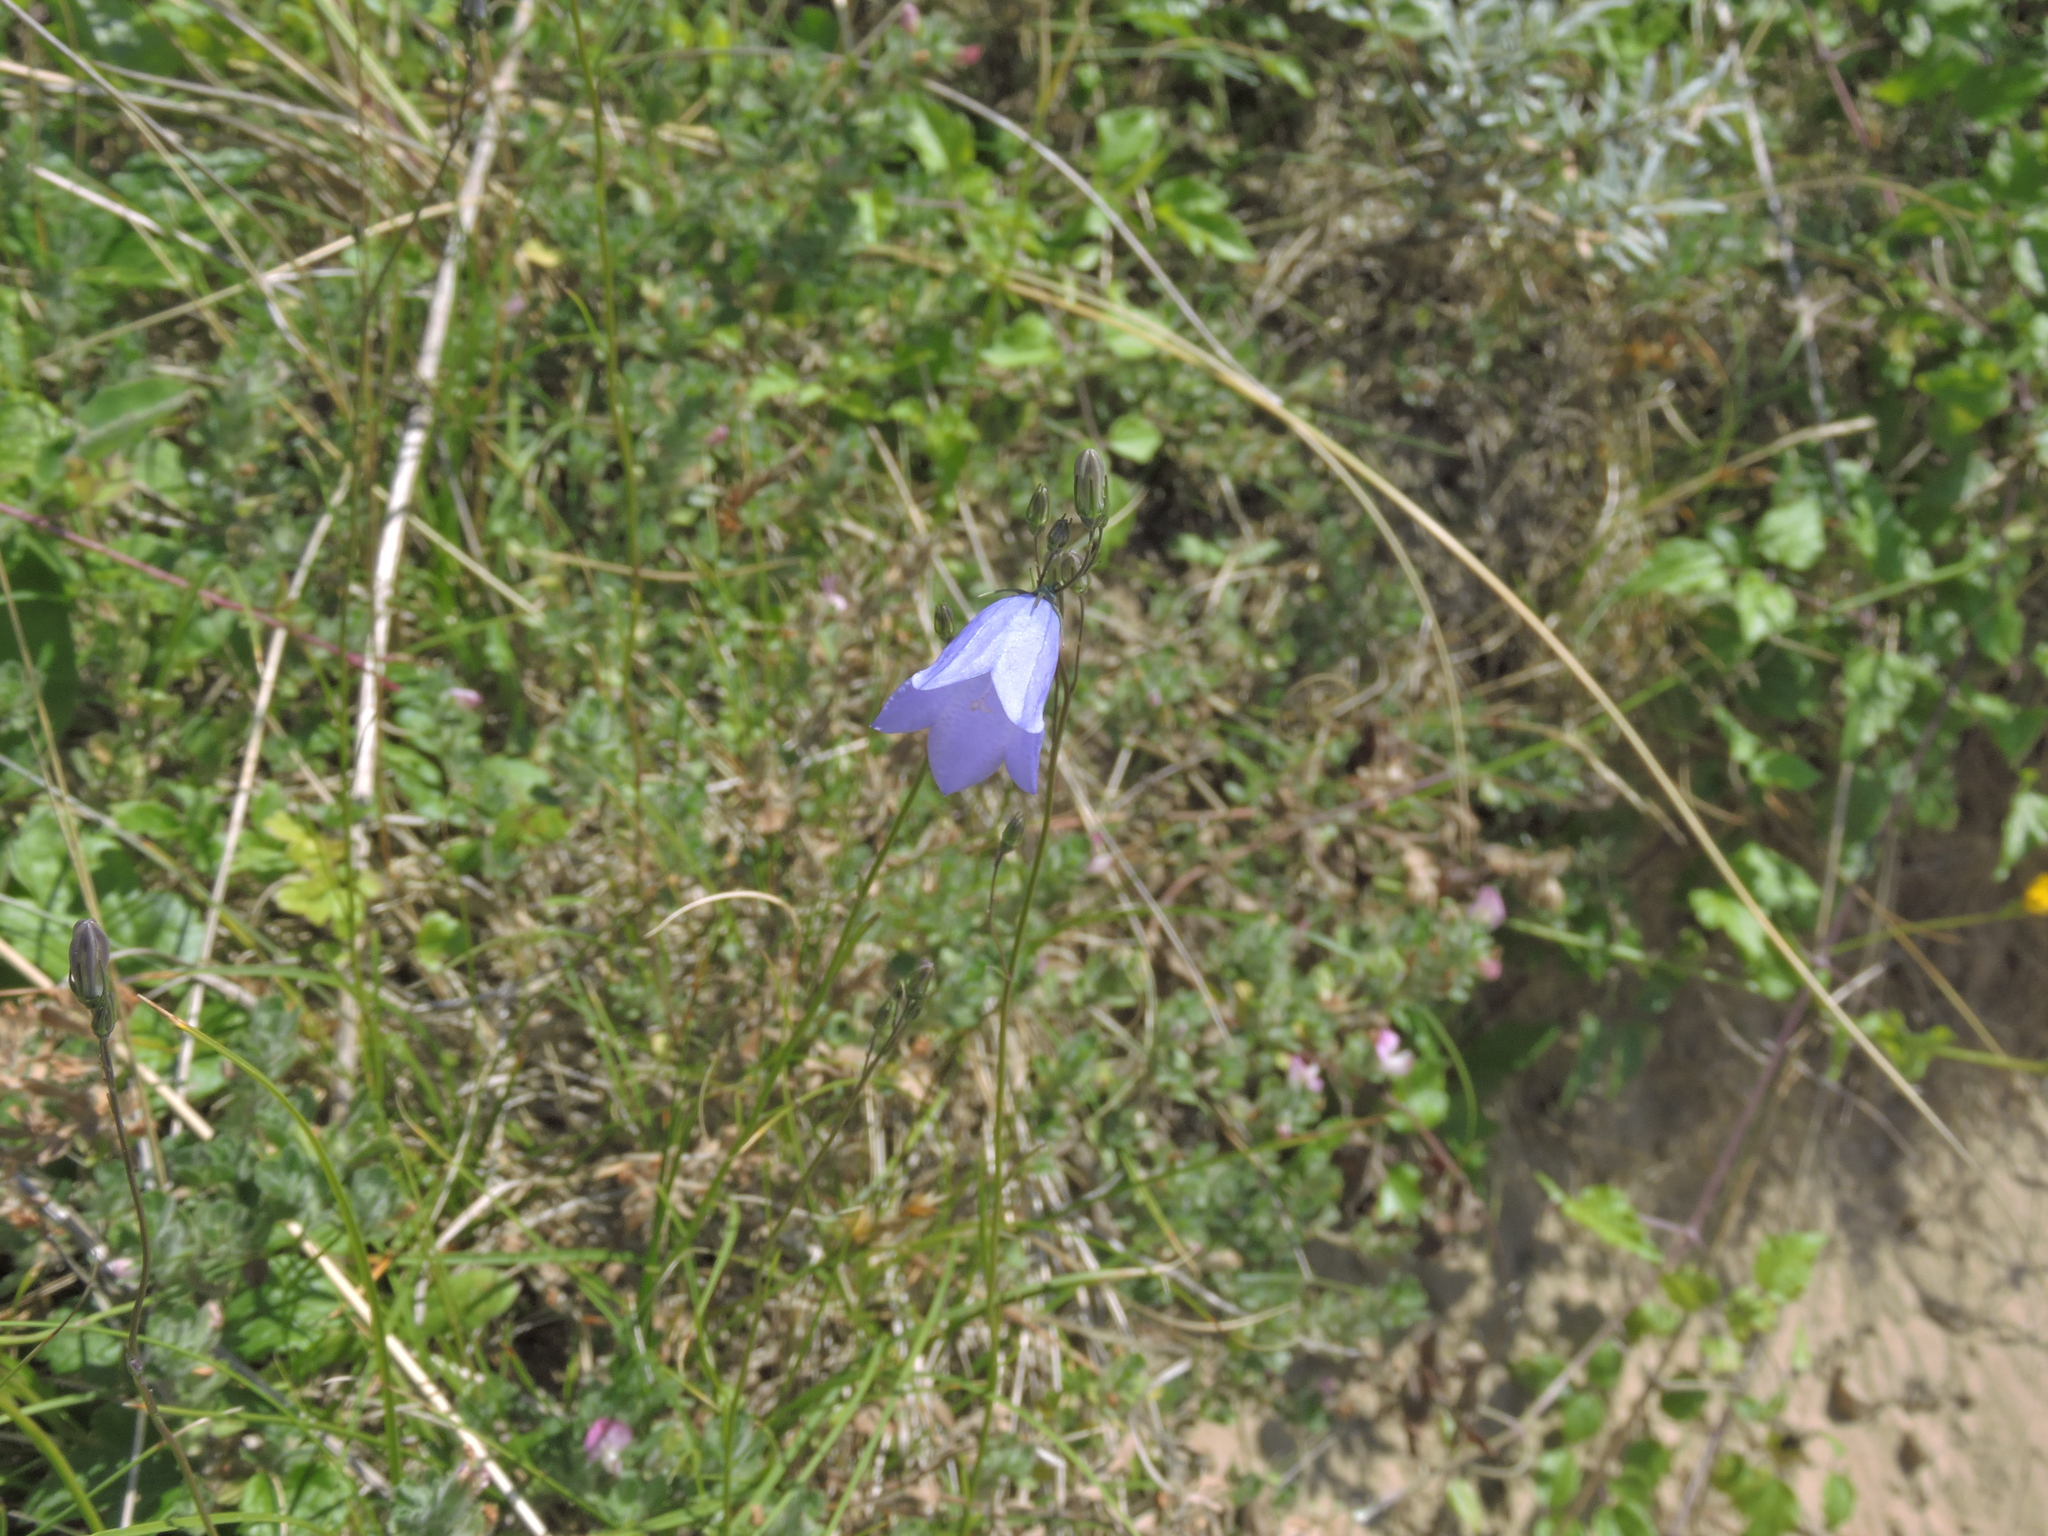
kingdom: Plantae
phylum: Tracheophyta
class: Magnoliopsida
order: Asterales
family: Campanulaceae
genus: Campanula
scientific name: Campanula rotundifolia
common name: Harebell
